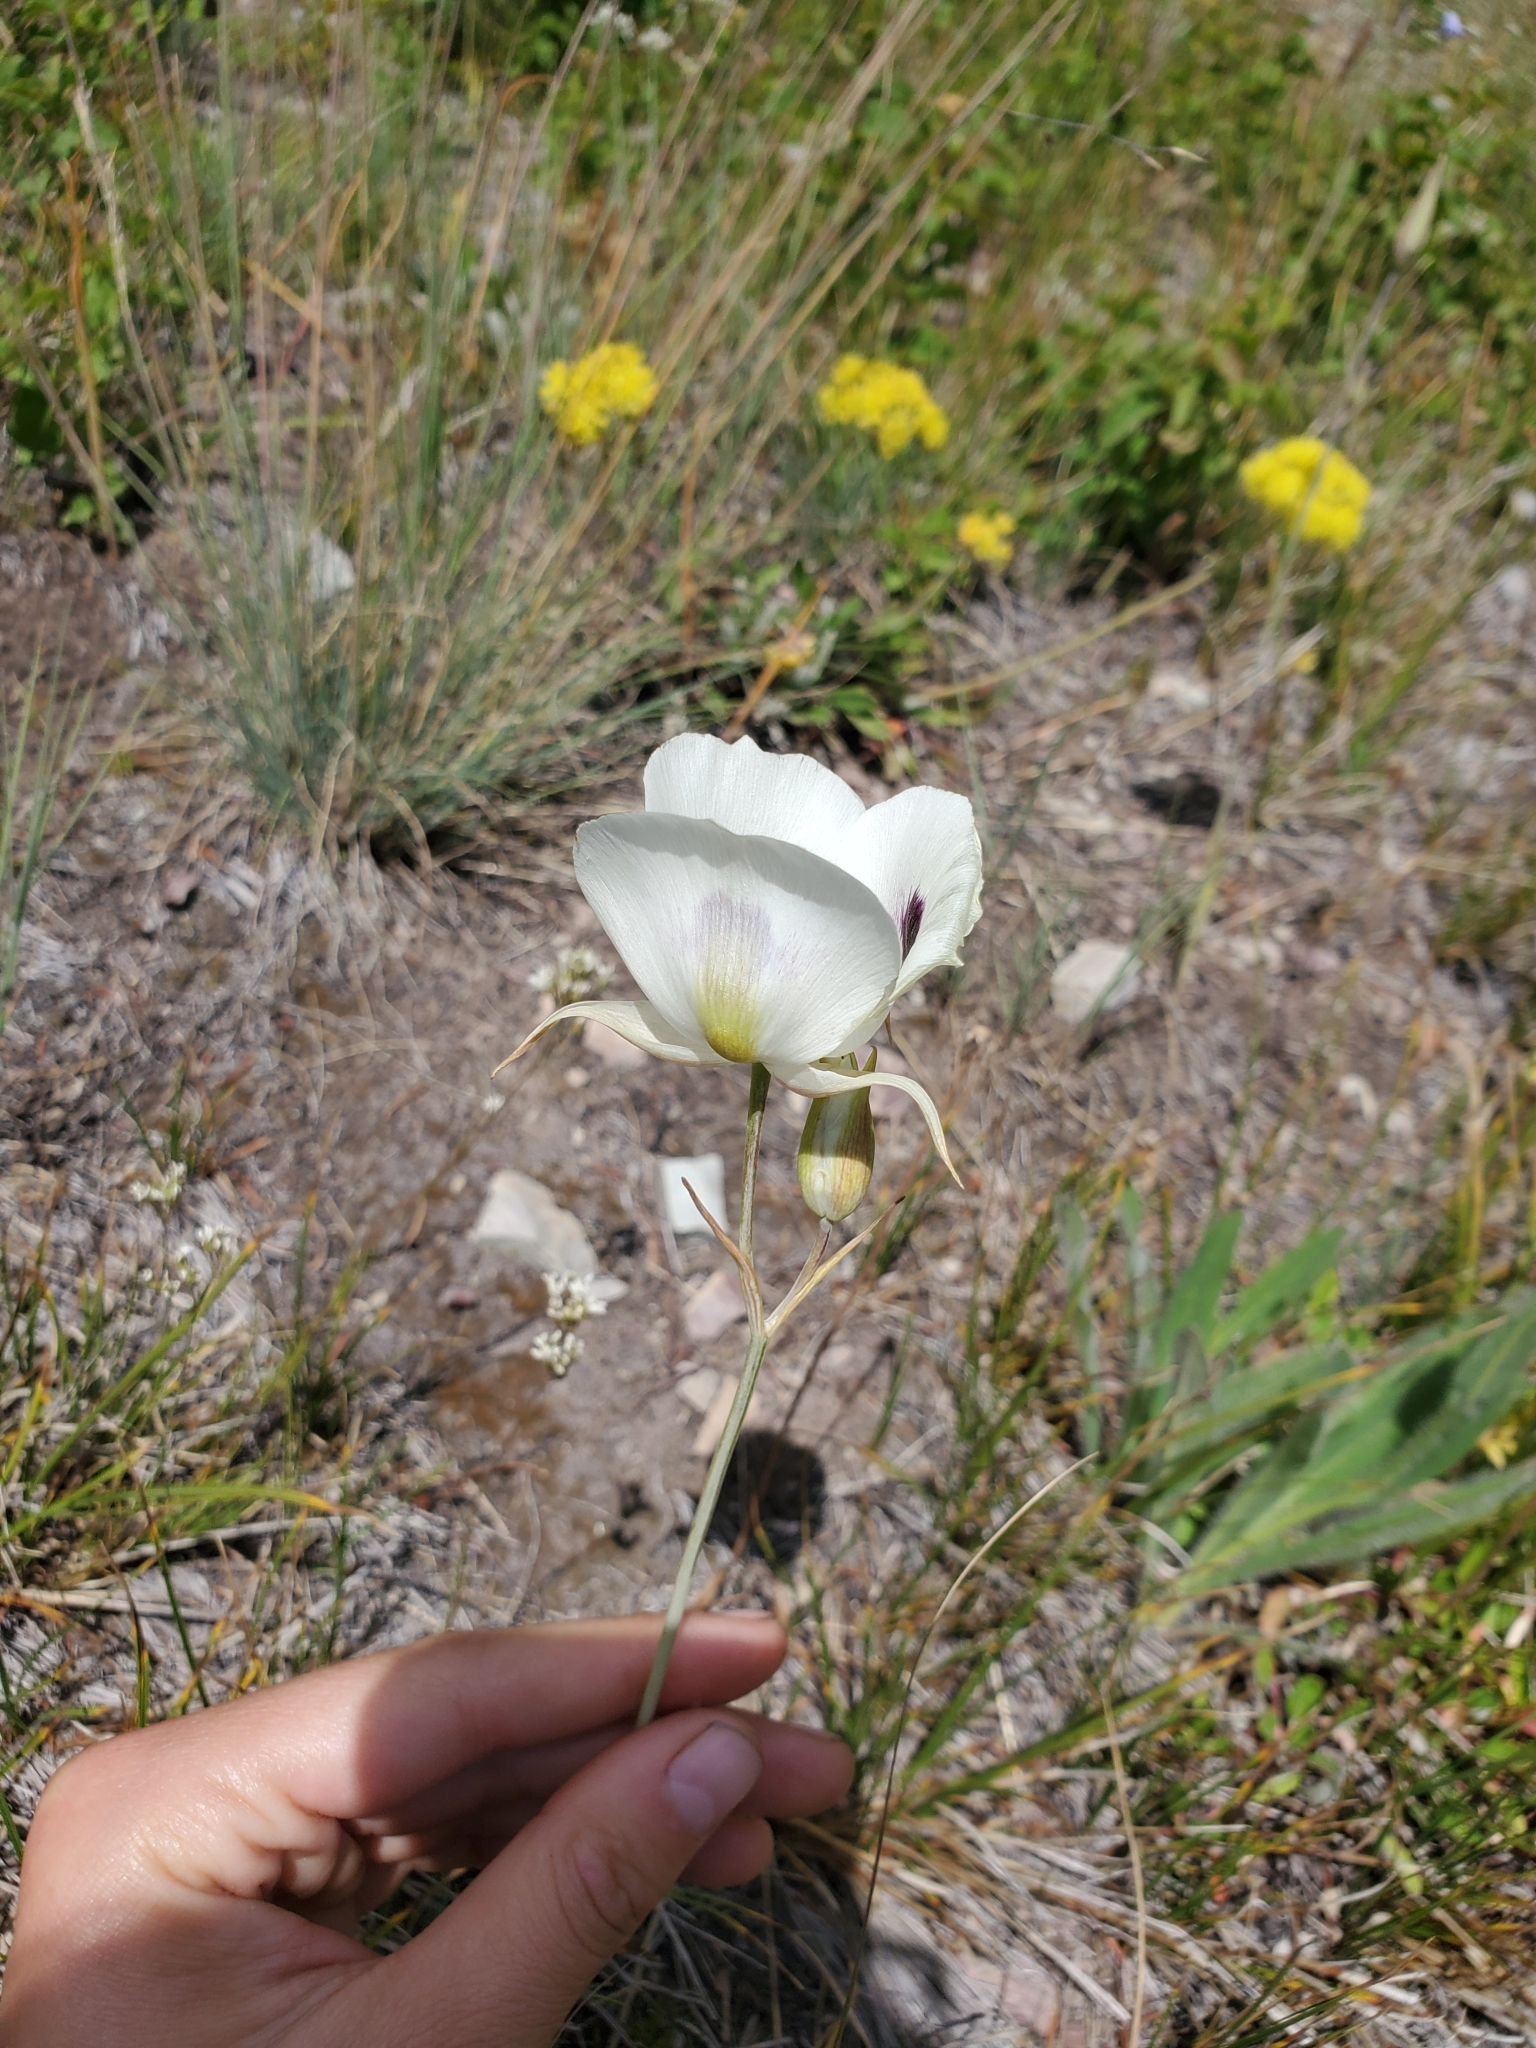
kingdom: Plantae
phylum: Tracheophyta
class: Liliopsida
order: Liliales
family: Liliaceae
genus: Calochortus
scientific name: Calochortus eurycarpus
